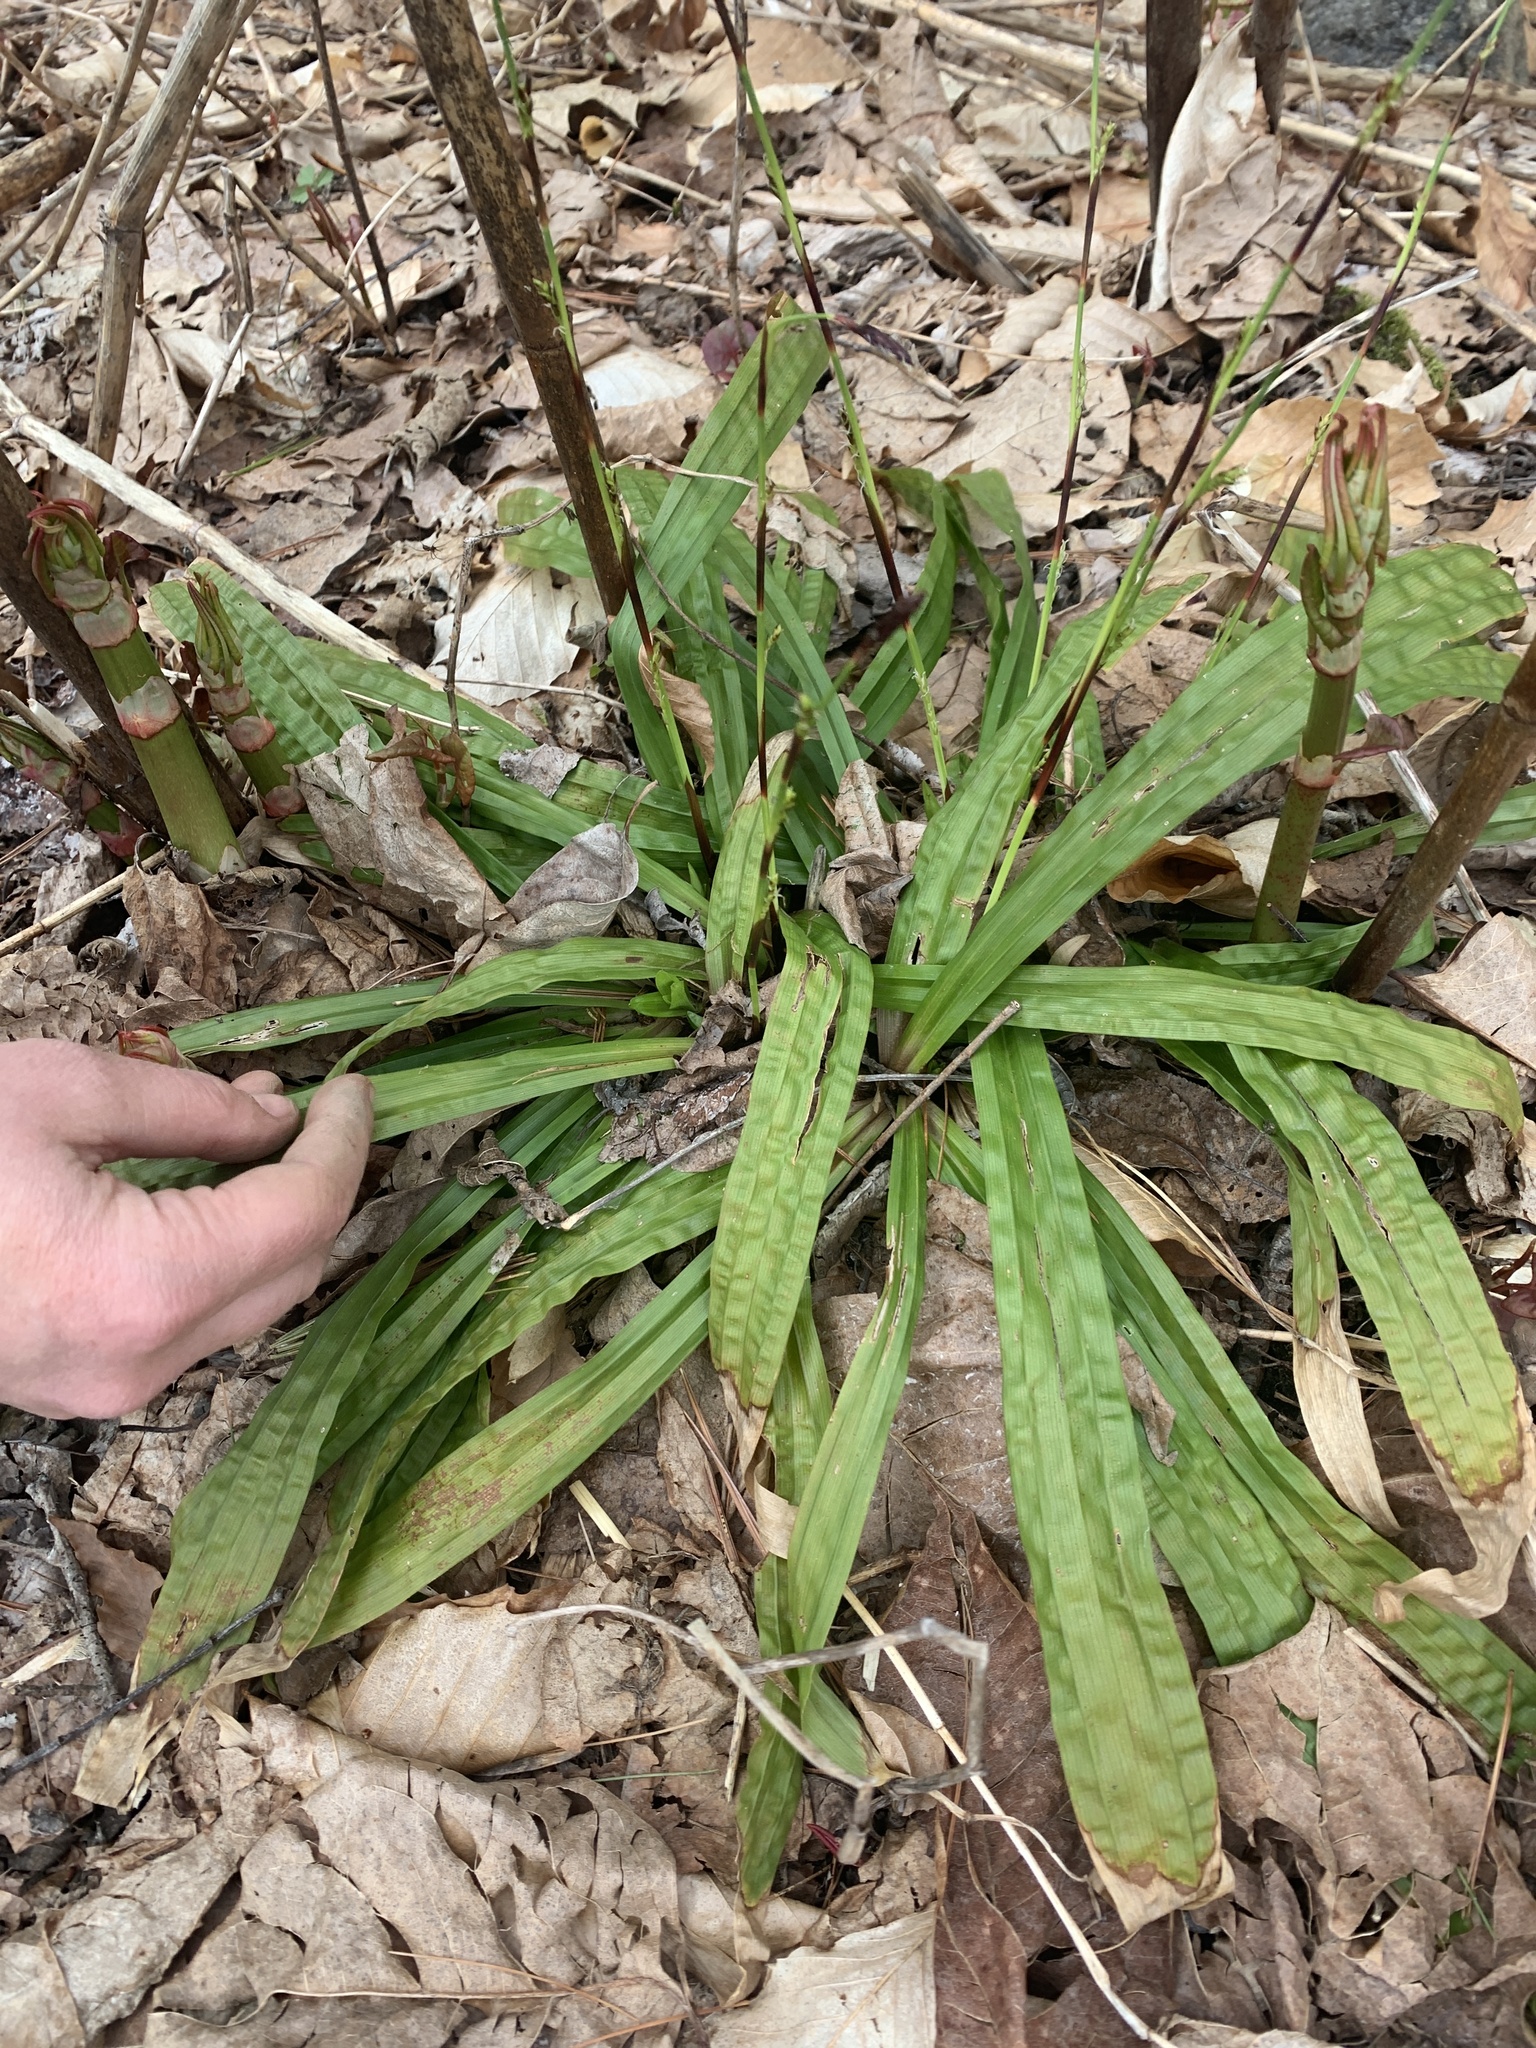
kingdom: Plantae
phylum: Tracheophyta
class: Liliopsida
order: Poales
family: Cyperaceae
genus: Carex
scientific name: Carex plantaginea
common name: Plantain-leaved sedge
